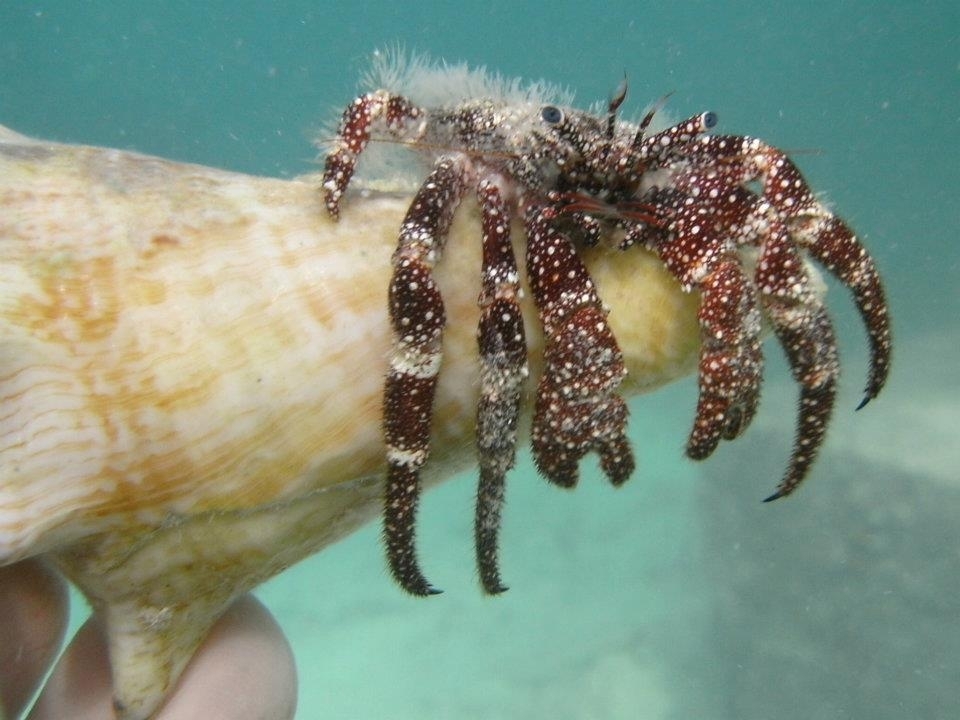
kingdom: Animalia
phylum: Arthropoda
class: Malacostraca
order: Decapoda
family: Diogenidae
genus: Paguristes
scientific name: Paguristes puncticeps
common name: White speckled hermit
